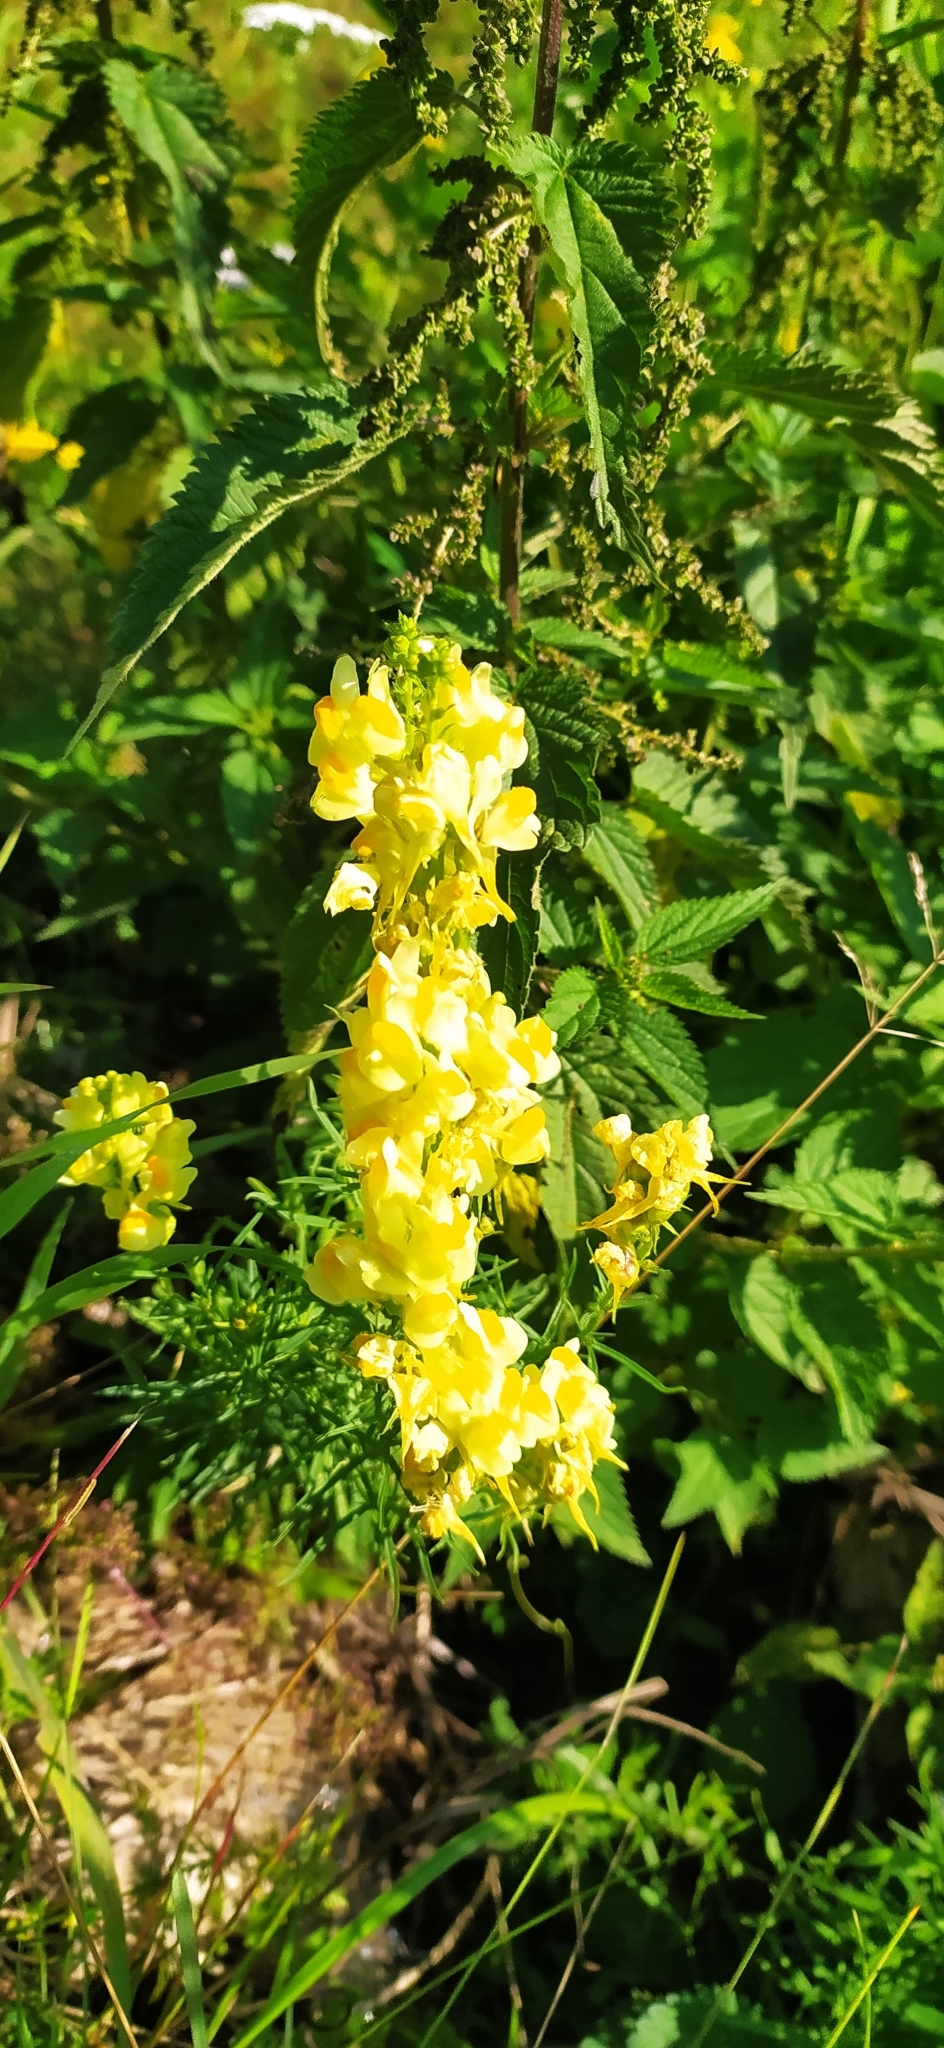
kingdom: Plantae
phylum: Tracheophyta
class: Magnoliopsida
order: Lamiales
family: Plantaginaceae
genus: Linaria
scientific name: Linaria vulgaris
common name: Butter and eggs
